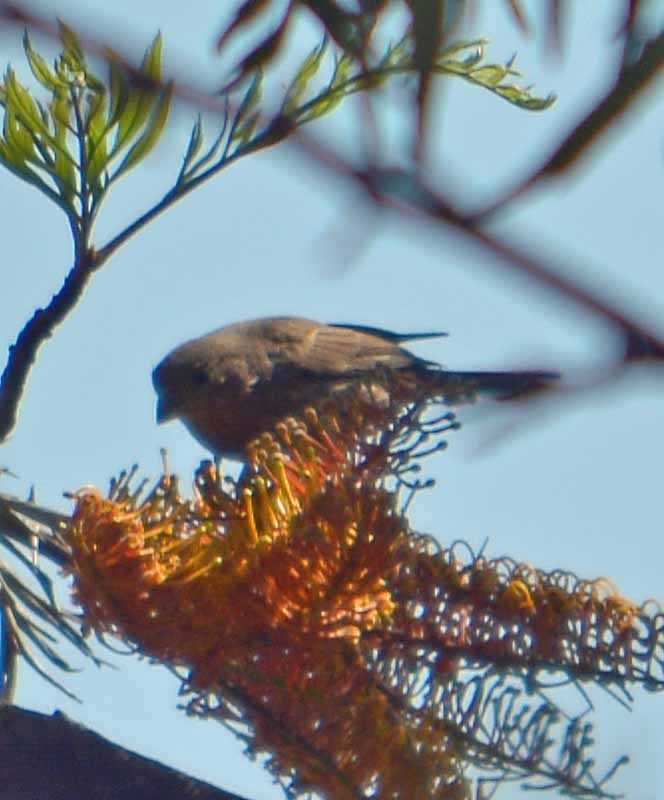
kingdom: Animalia
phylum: Chordata
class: Aves
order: Passeriformes
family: Fringillidae
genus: Haemorhous
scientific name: Haemorhous mexicanus
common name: House finch
